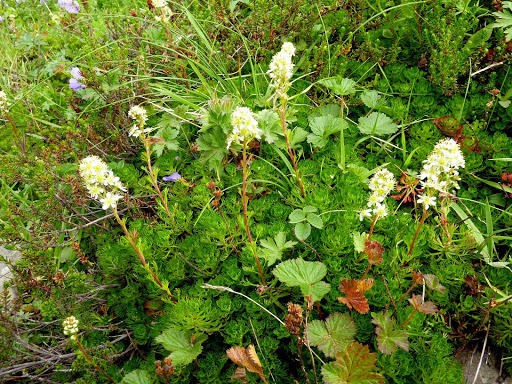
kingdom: Plantae
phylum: Tracheophyta
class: Magnoliopsida
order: Rosales
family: Rosaceae
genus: Luetkea
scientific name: Luetkea pectinata
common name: Partridgefoot
